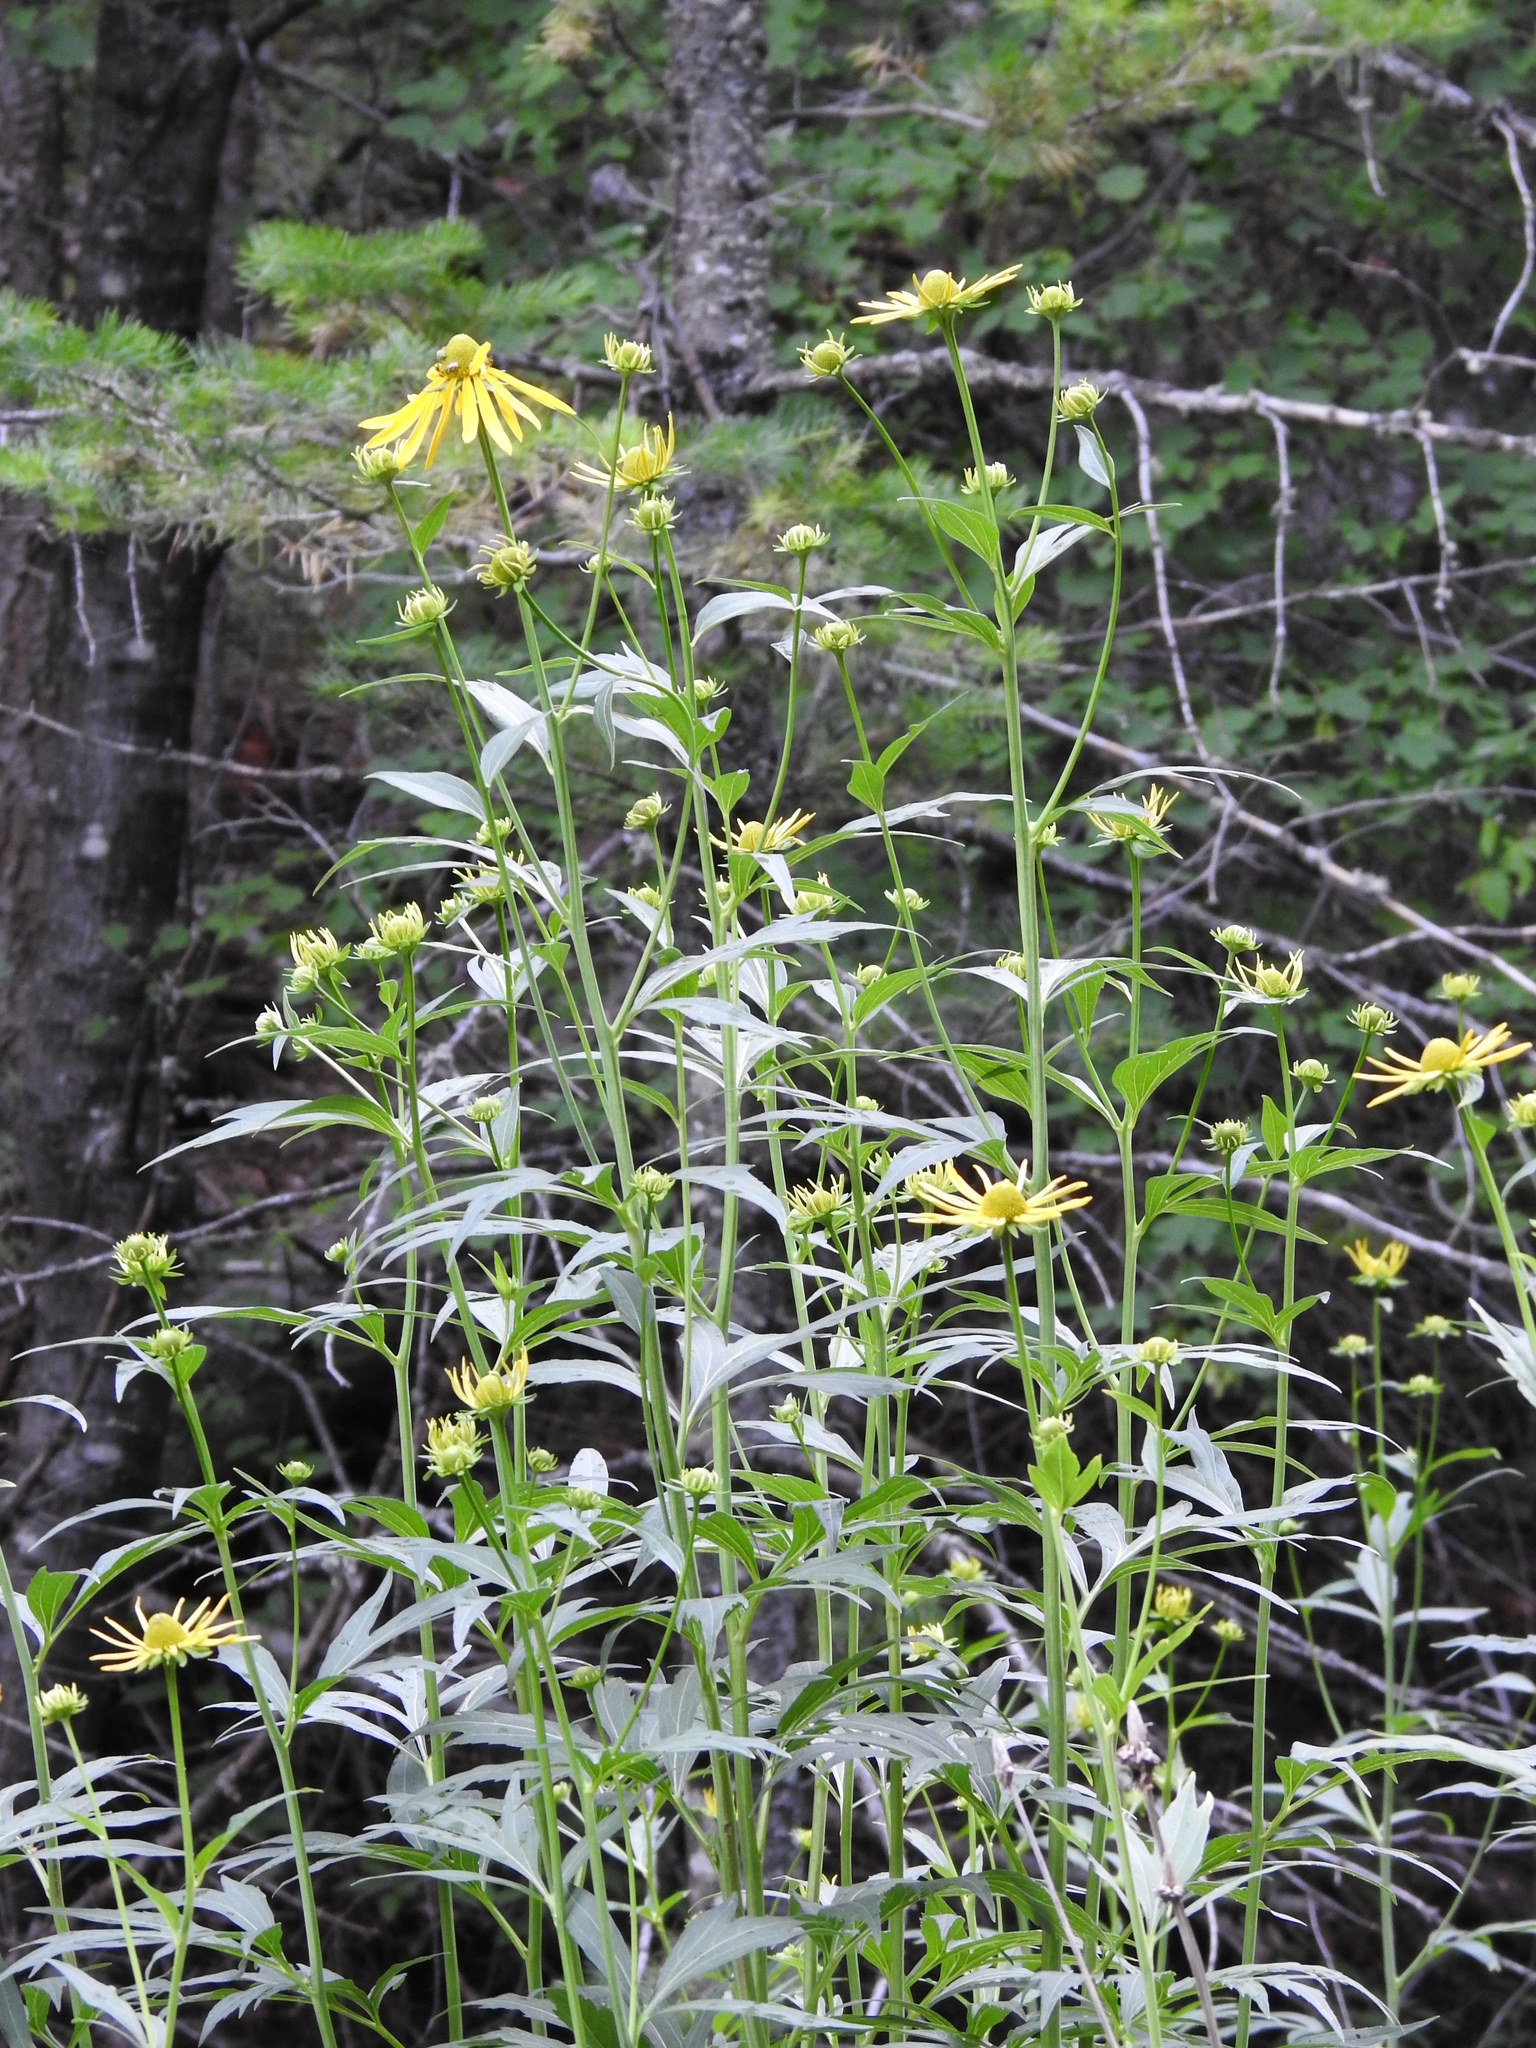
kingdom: Plantae
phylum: Tracheophyta
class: Magnoliopsida
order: Asterales
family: Asteraceae
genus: Rudbeckia
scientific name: Rudbeckia laciniata
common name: Coneflower
